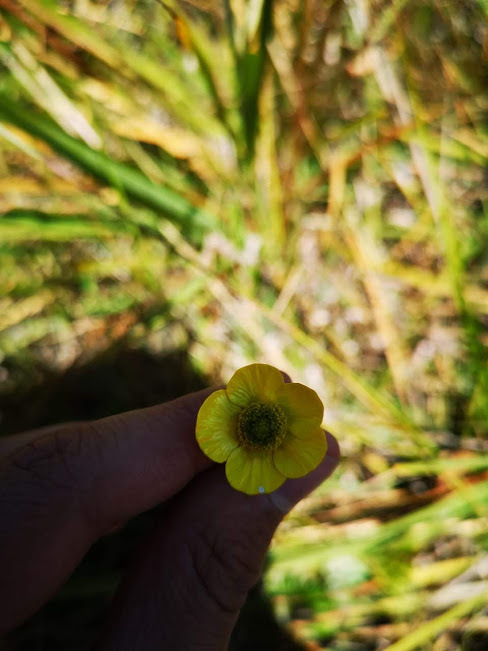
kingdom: Plantae
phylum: Tracheophyta
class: Magnoliopsida
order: Ranunculales
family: Ranunculaceae
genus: Ranunculus
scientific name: Ranunculus peruvianus
